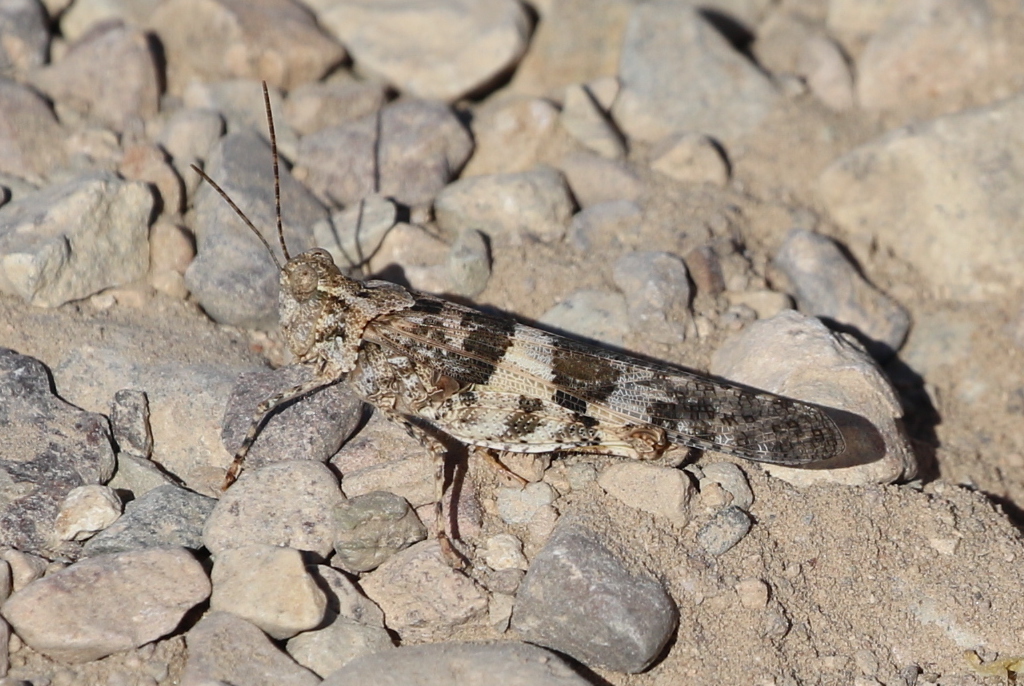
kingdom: Animalia
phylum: Arthropoda
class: Insecta
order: Orthoptera
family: Acrididae
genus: Trimerotropis
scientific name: Trimerotropis pallidipennis
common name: Pallid-winged grasshopper
